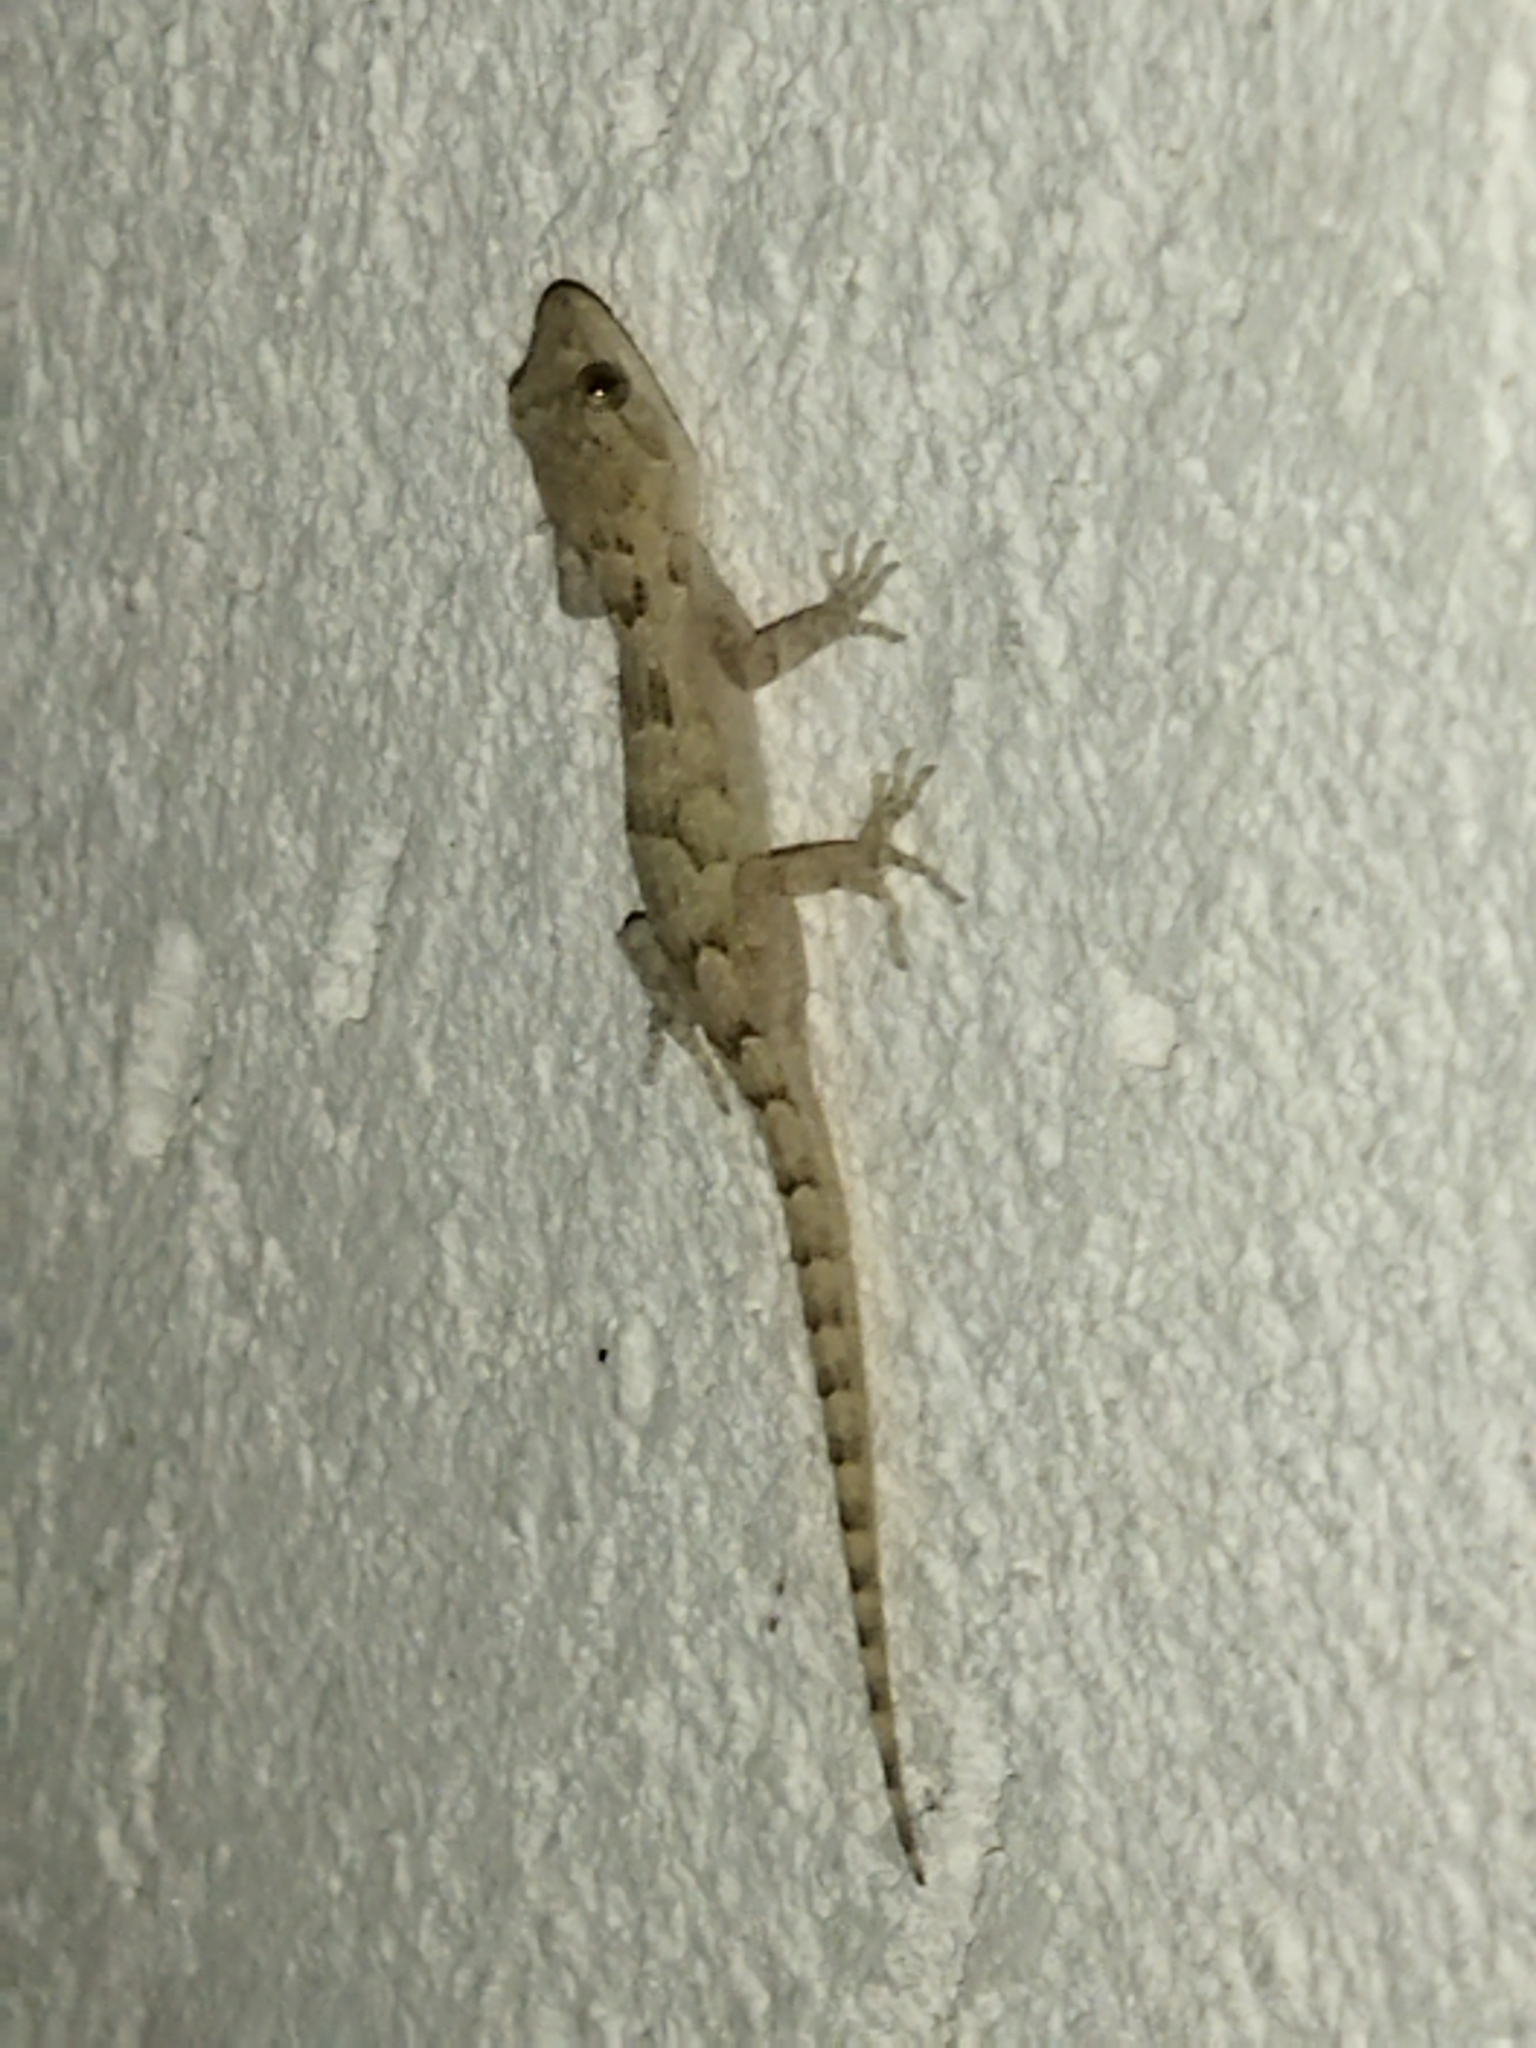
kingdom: Animalia
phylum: Chordata
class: Squamata
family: Gekkonidae
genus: Mediodactylus
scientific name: Mediodactylus kotschyi
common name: Kotschy's gecko
